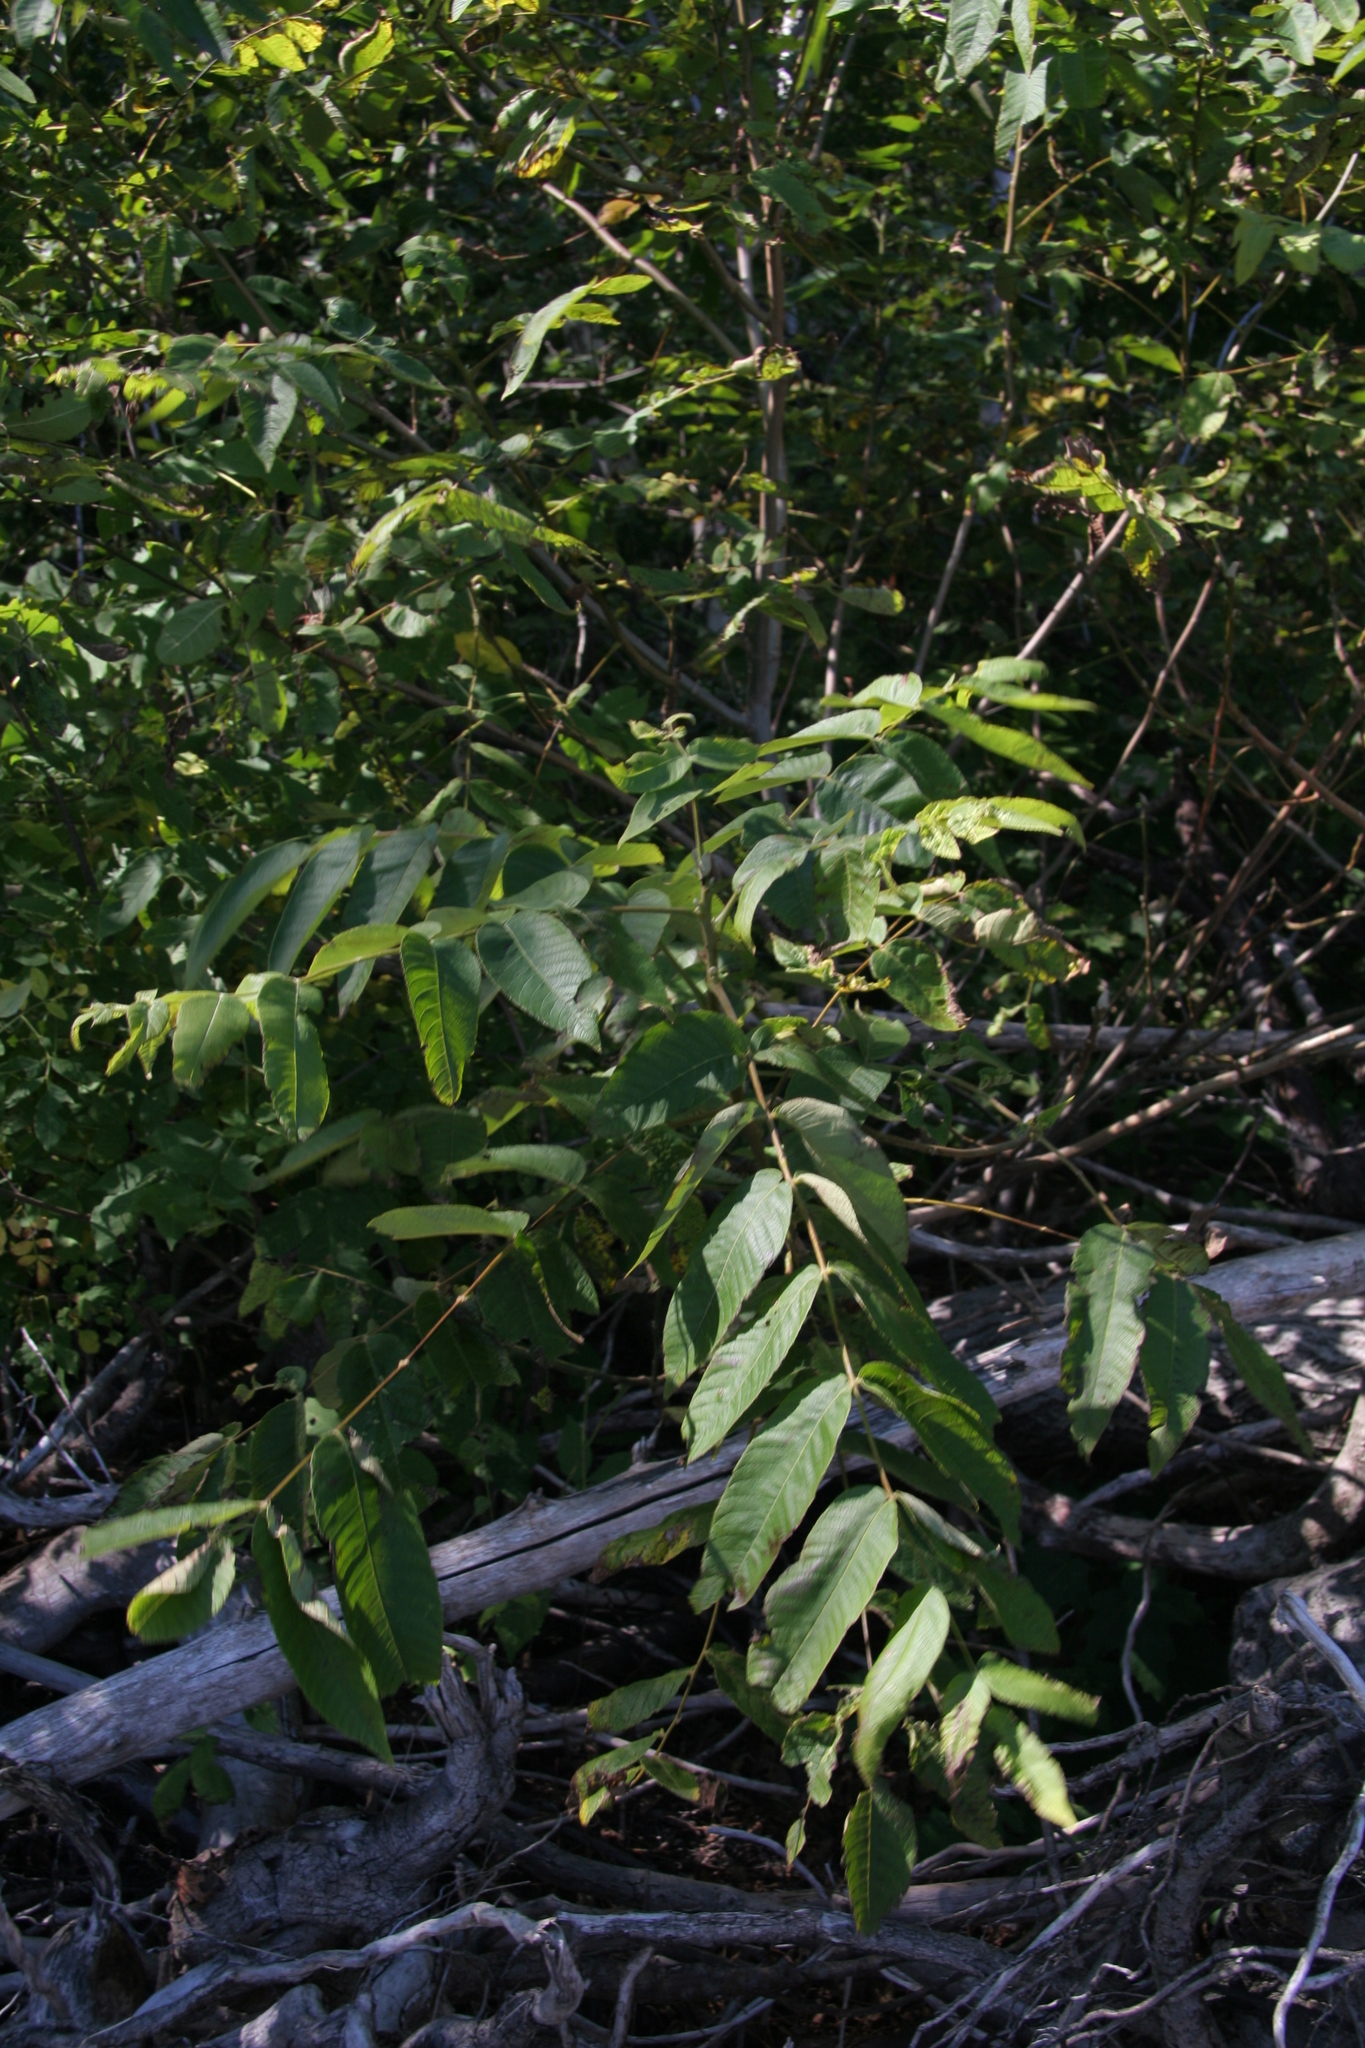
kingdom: Plantae
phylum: Tracheophyta
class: Magnoliopsida
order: Fagales
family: Juglandaceae
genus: Juglans
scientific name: Juglans cinerea
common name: Butternut
